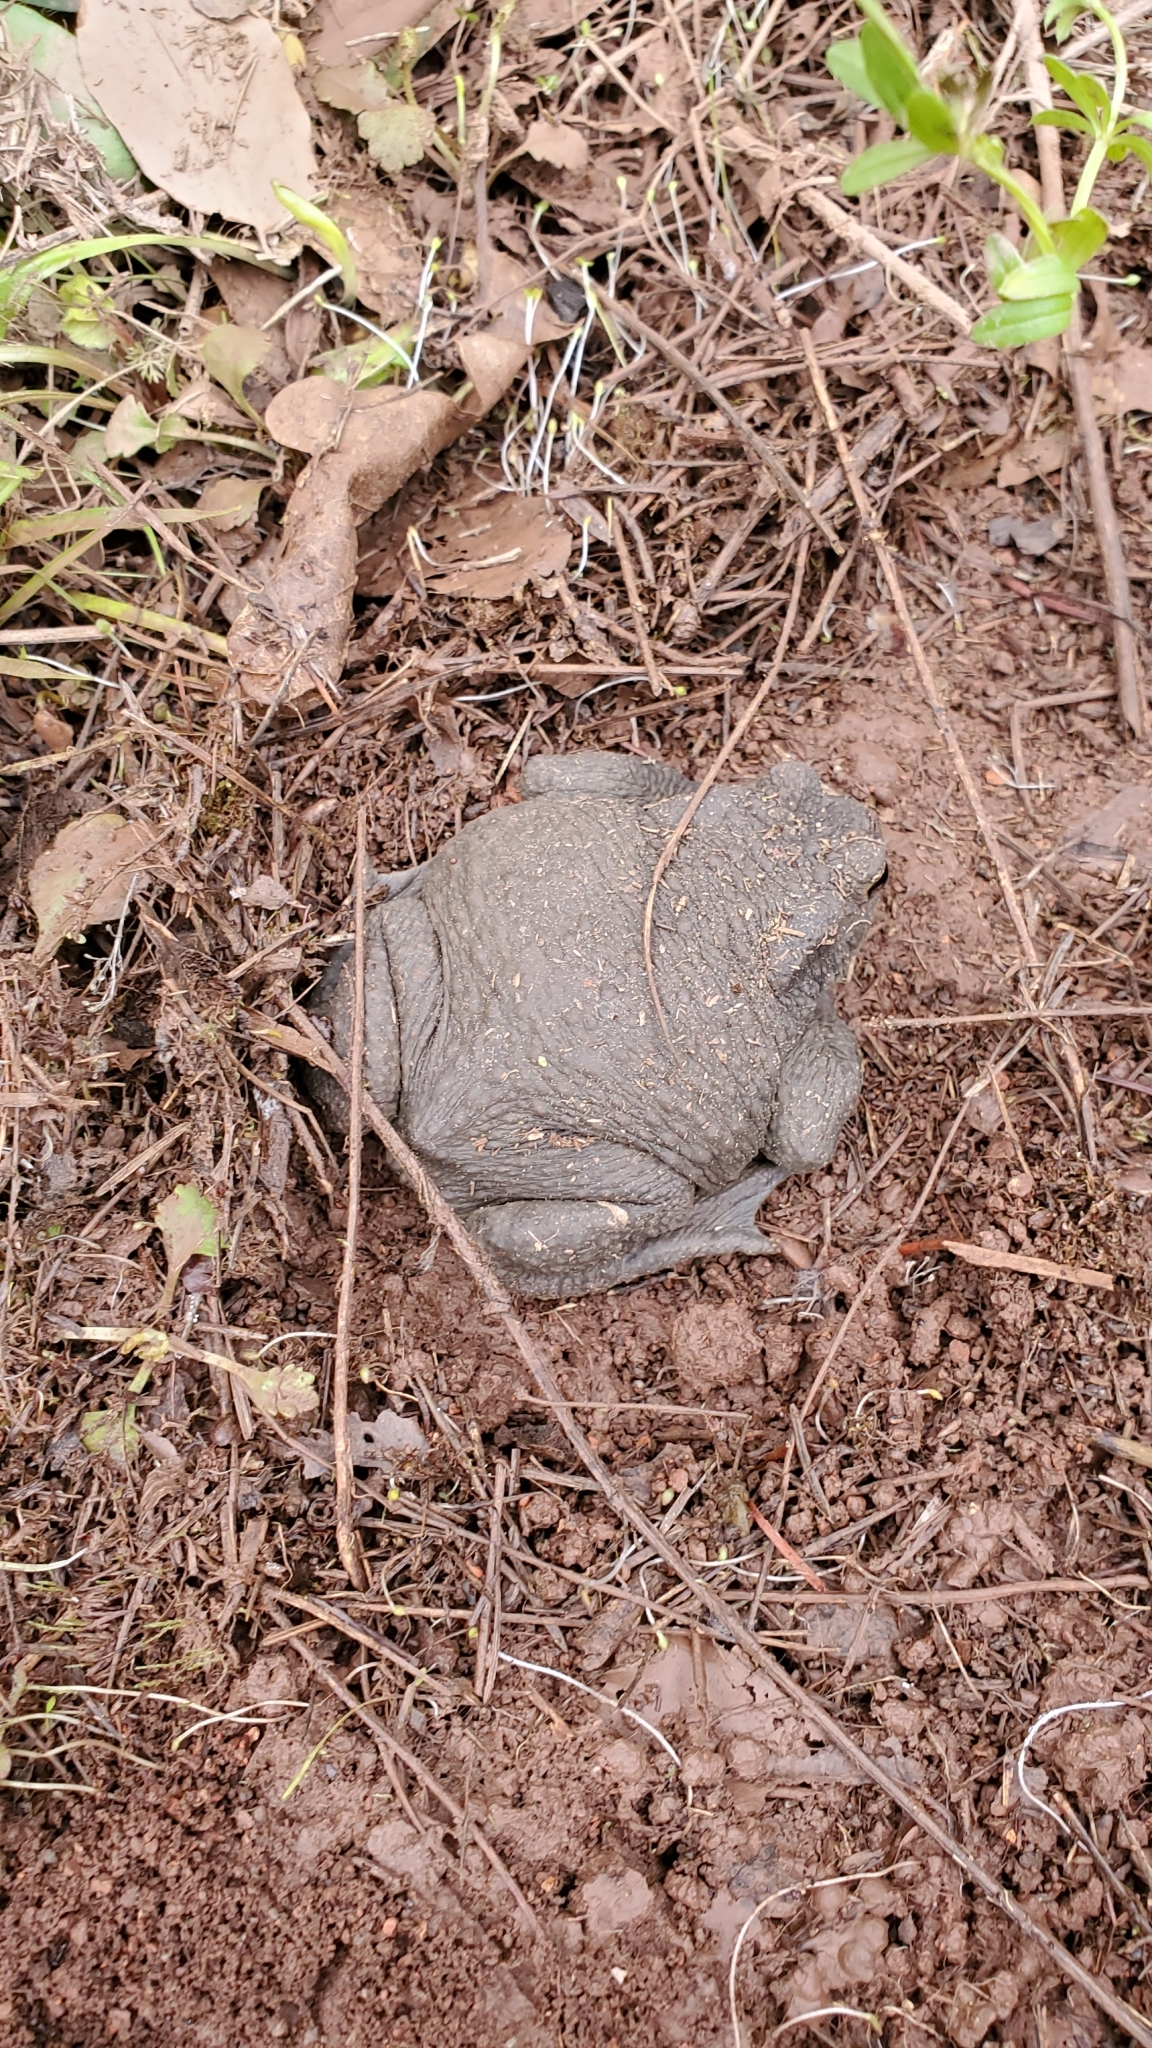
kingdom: Animalia
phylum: Chordata
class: Amphibia
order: Anura
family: Bufonidae
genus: Bufo
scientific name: Bufo bufo
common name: Common toad
